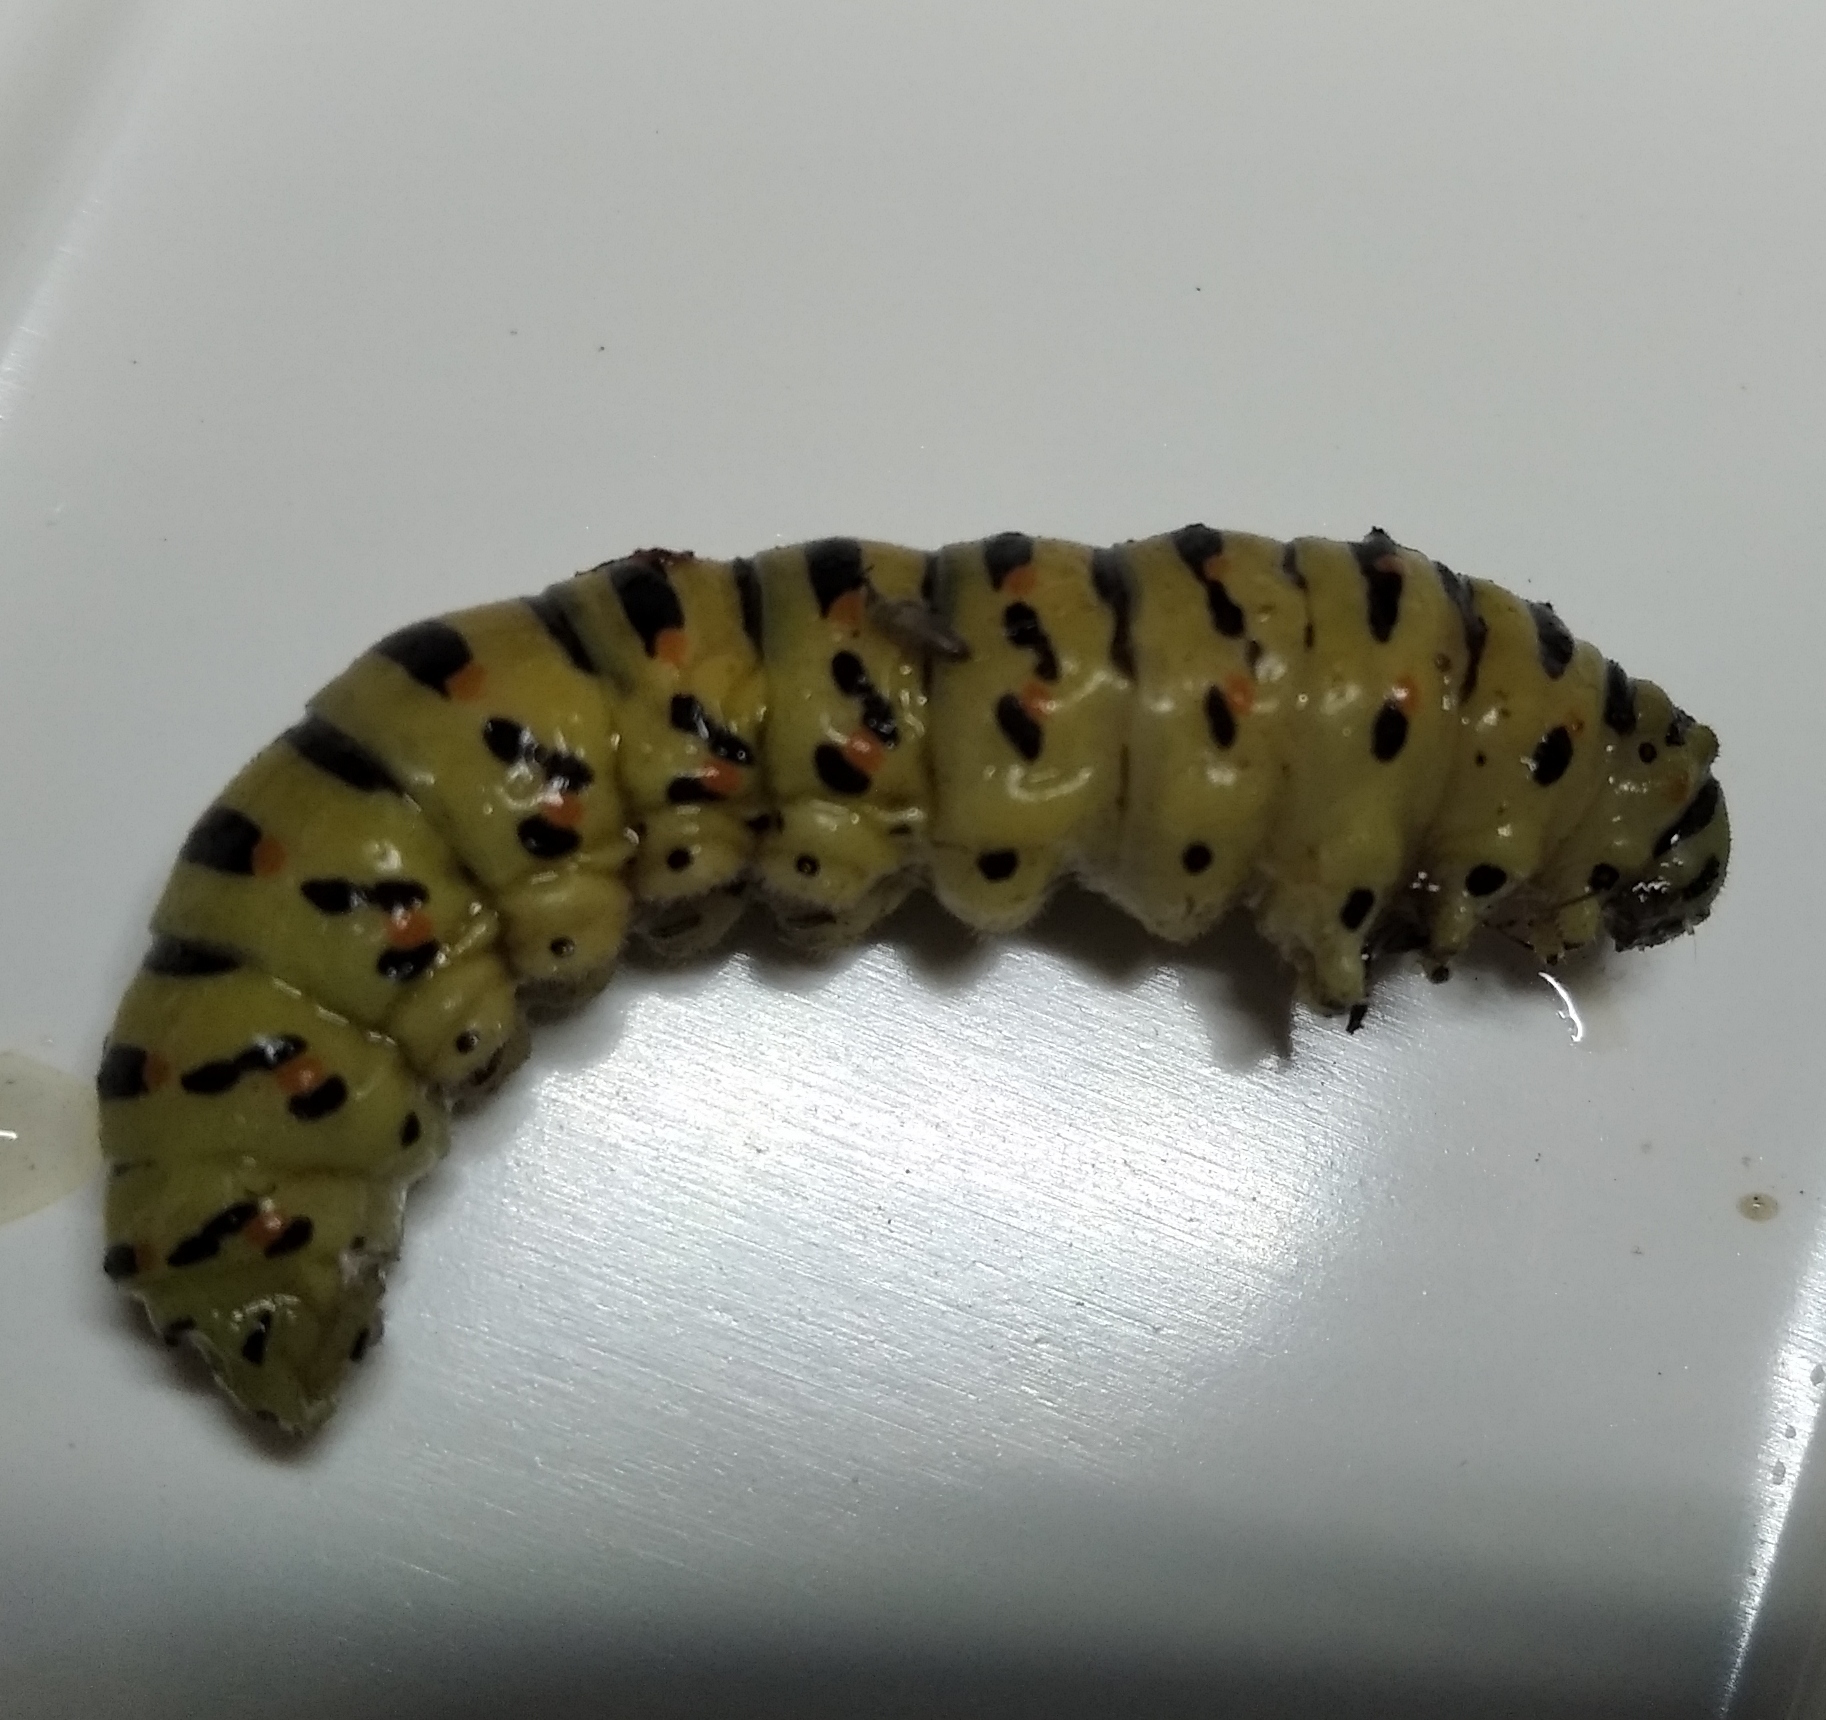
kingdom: Animalia
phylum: Arthropoda
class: Insecta
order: Lepidoptera
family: Papilionidae
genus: Papilio
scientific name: Papilio machaon
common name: Swallowtail
